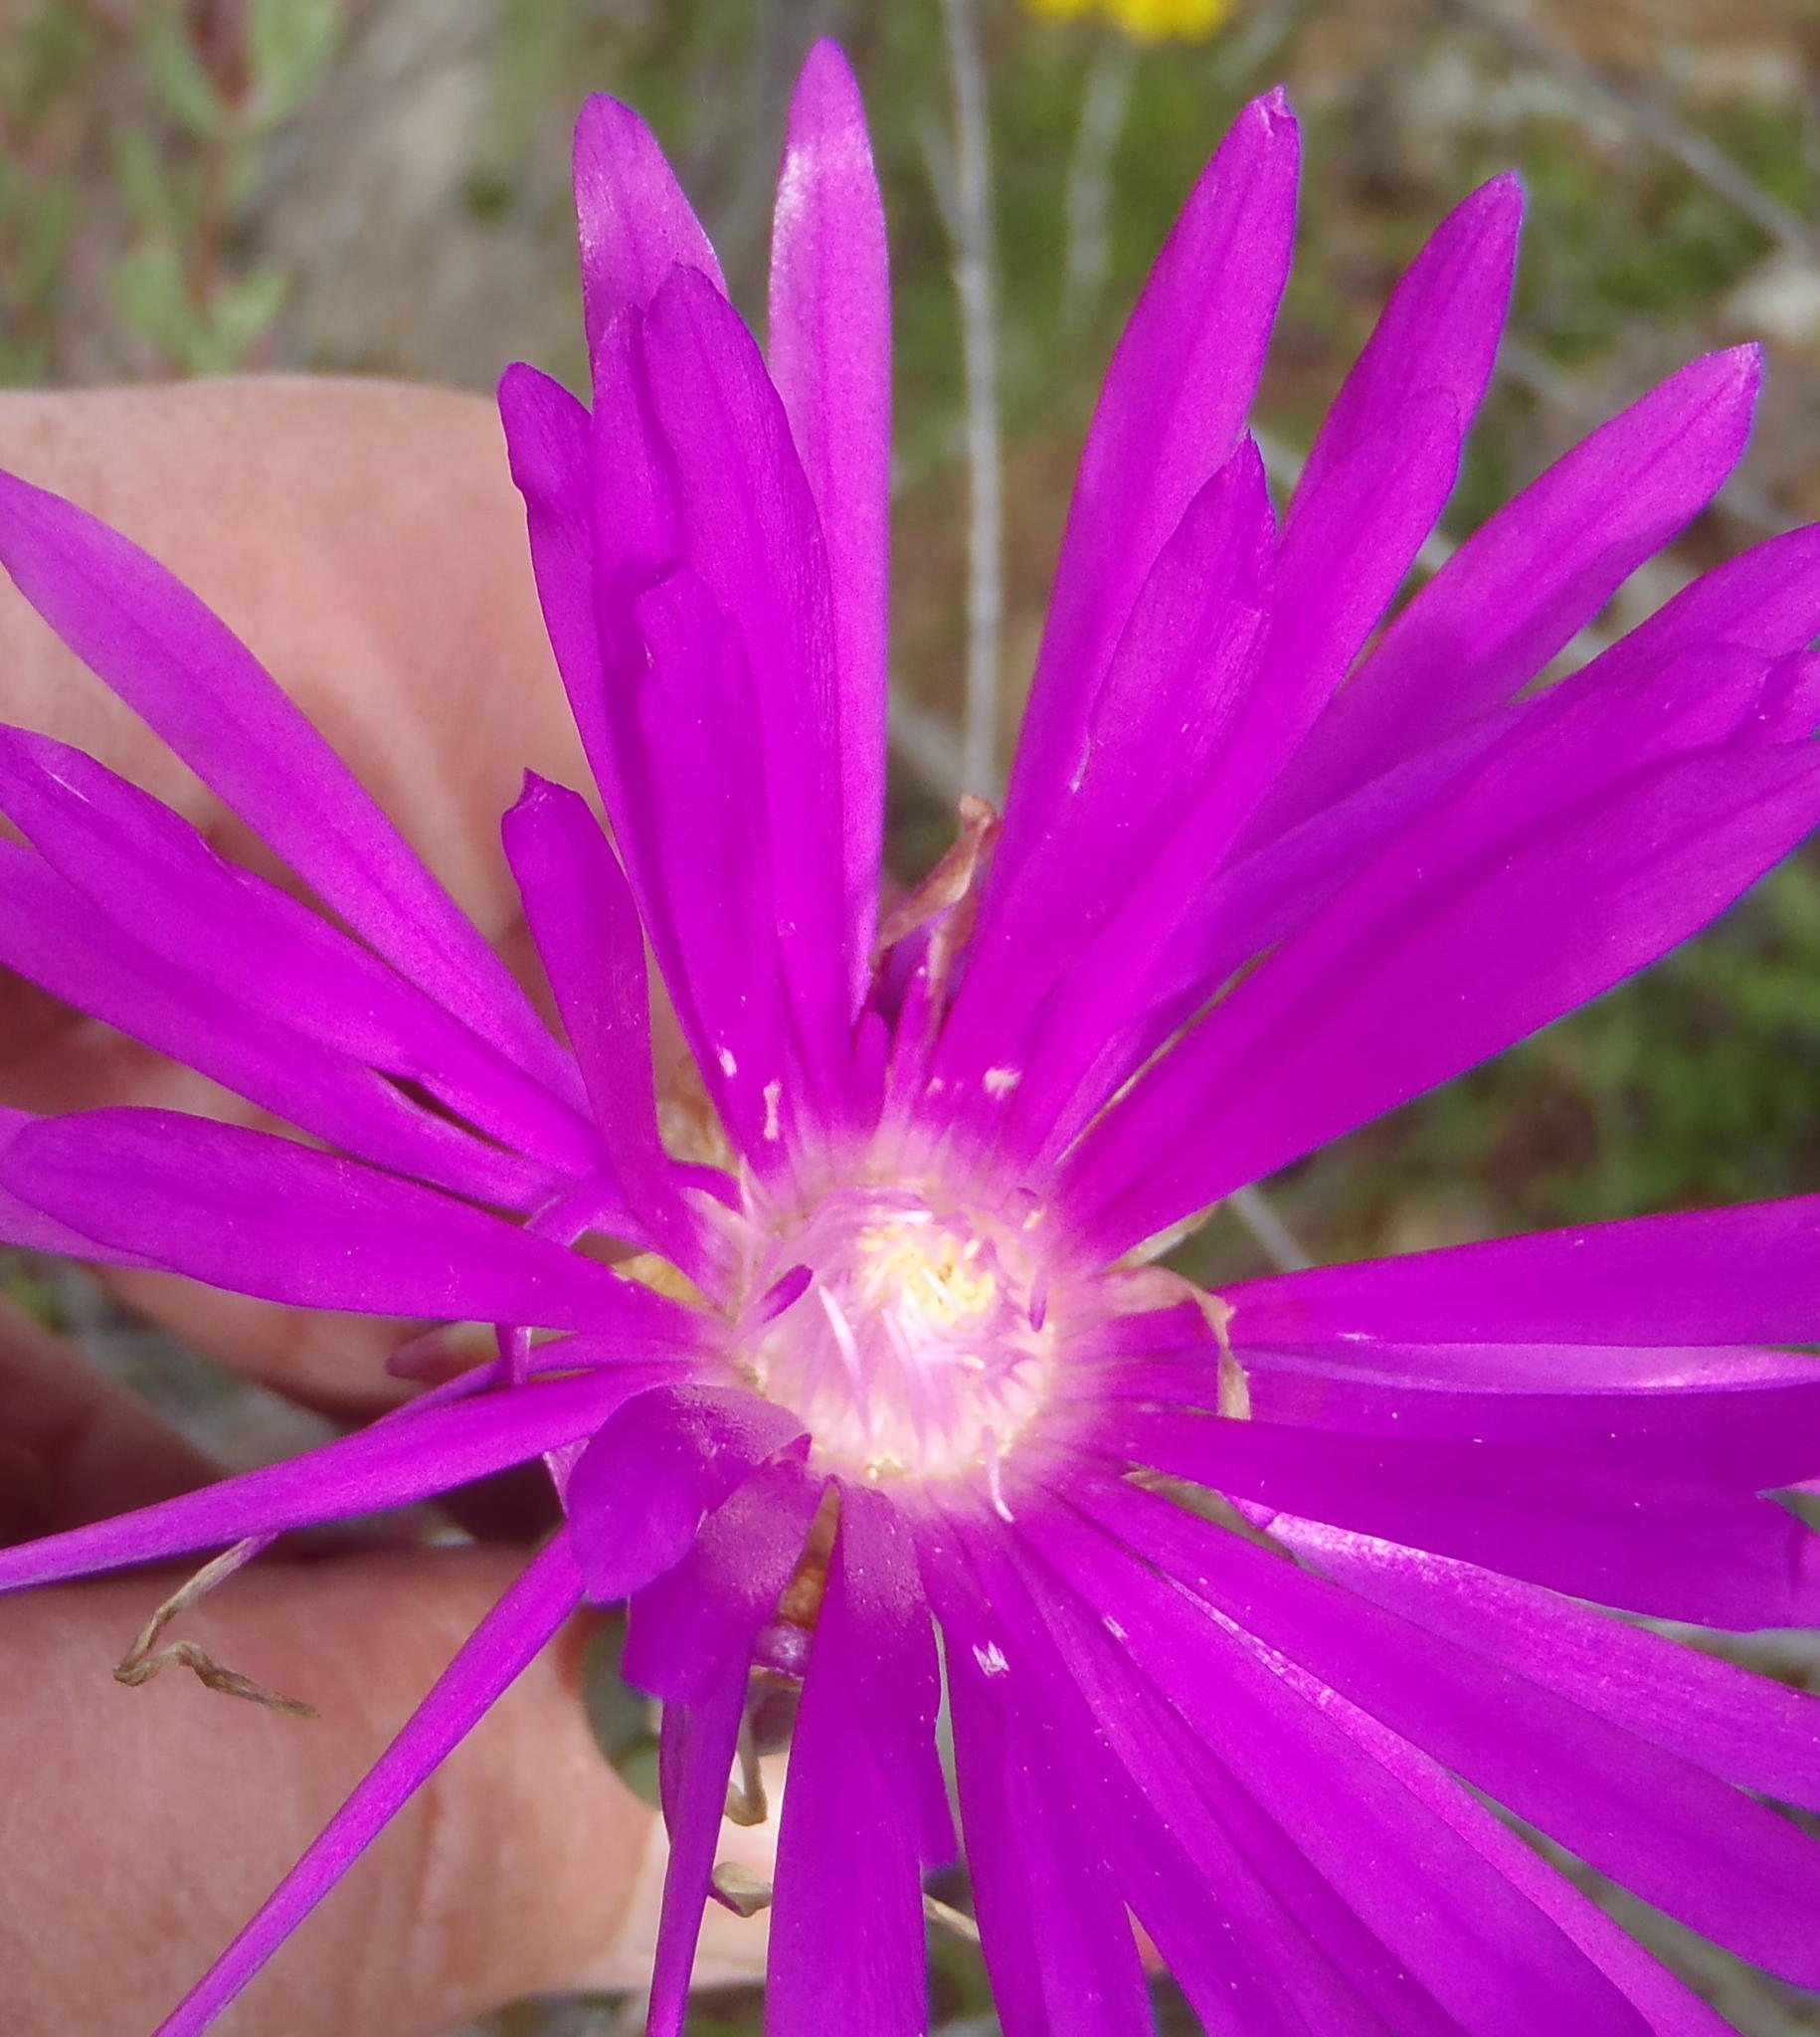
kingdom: Plantae
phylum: Tracheophyta
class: Magnoliopsida
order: Caryophyllales
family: Aizoaceae
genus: Lampranthus
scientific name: Lampranthus haworthii
